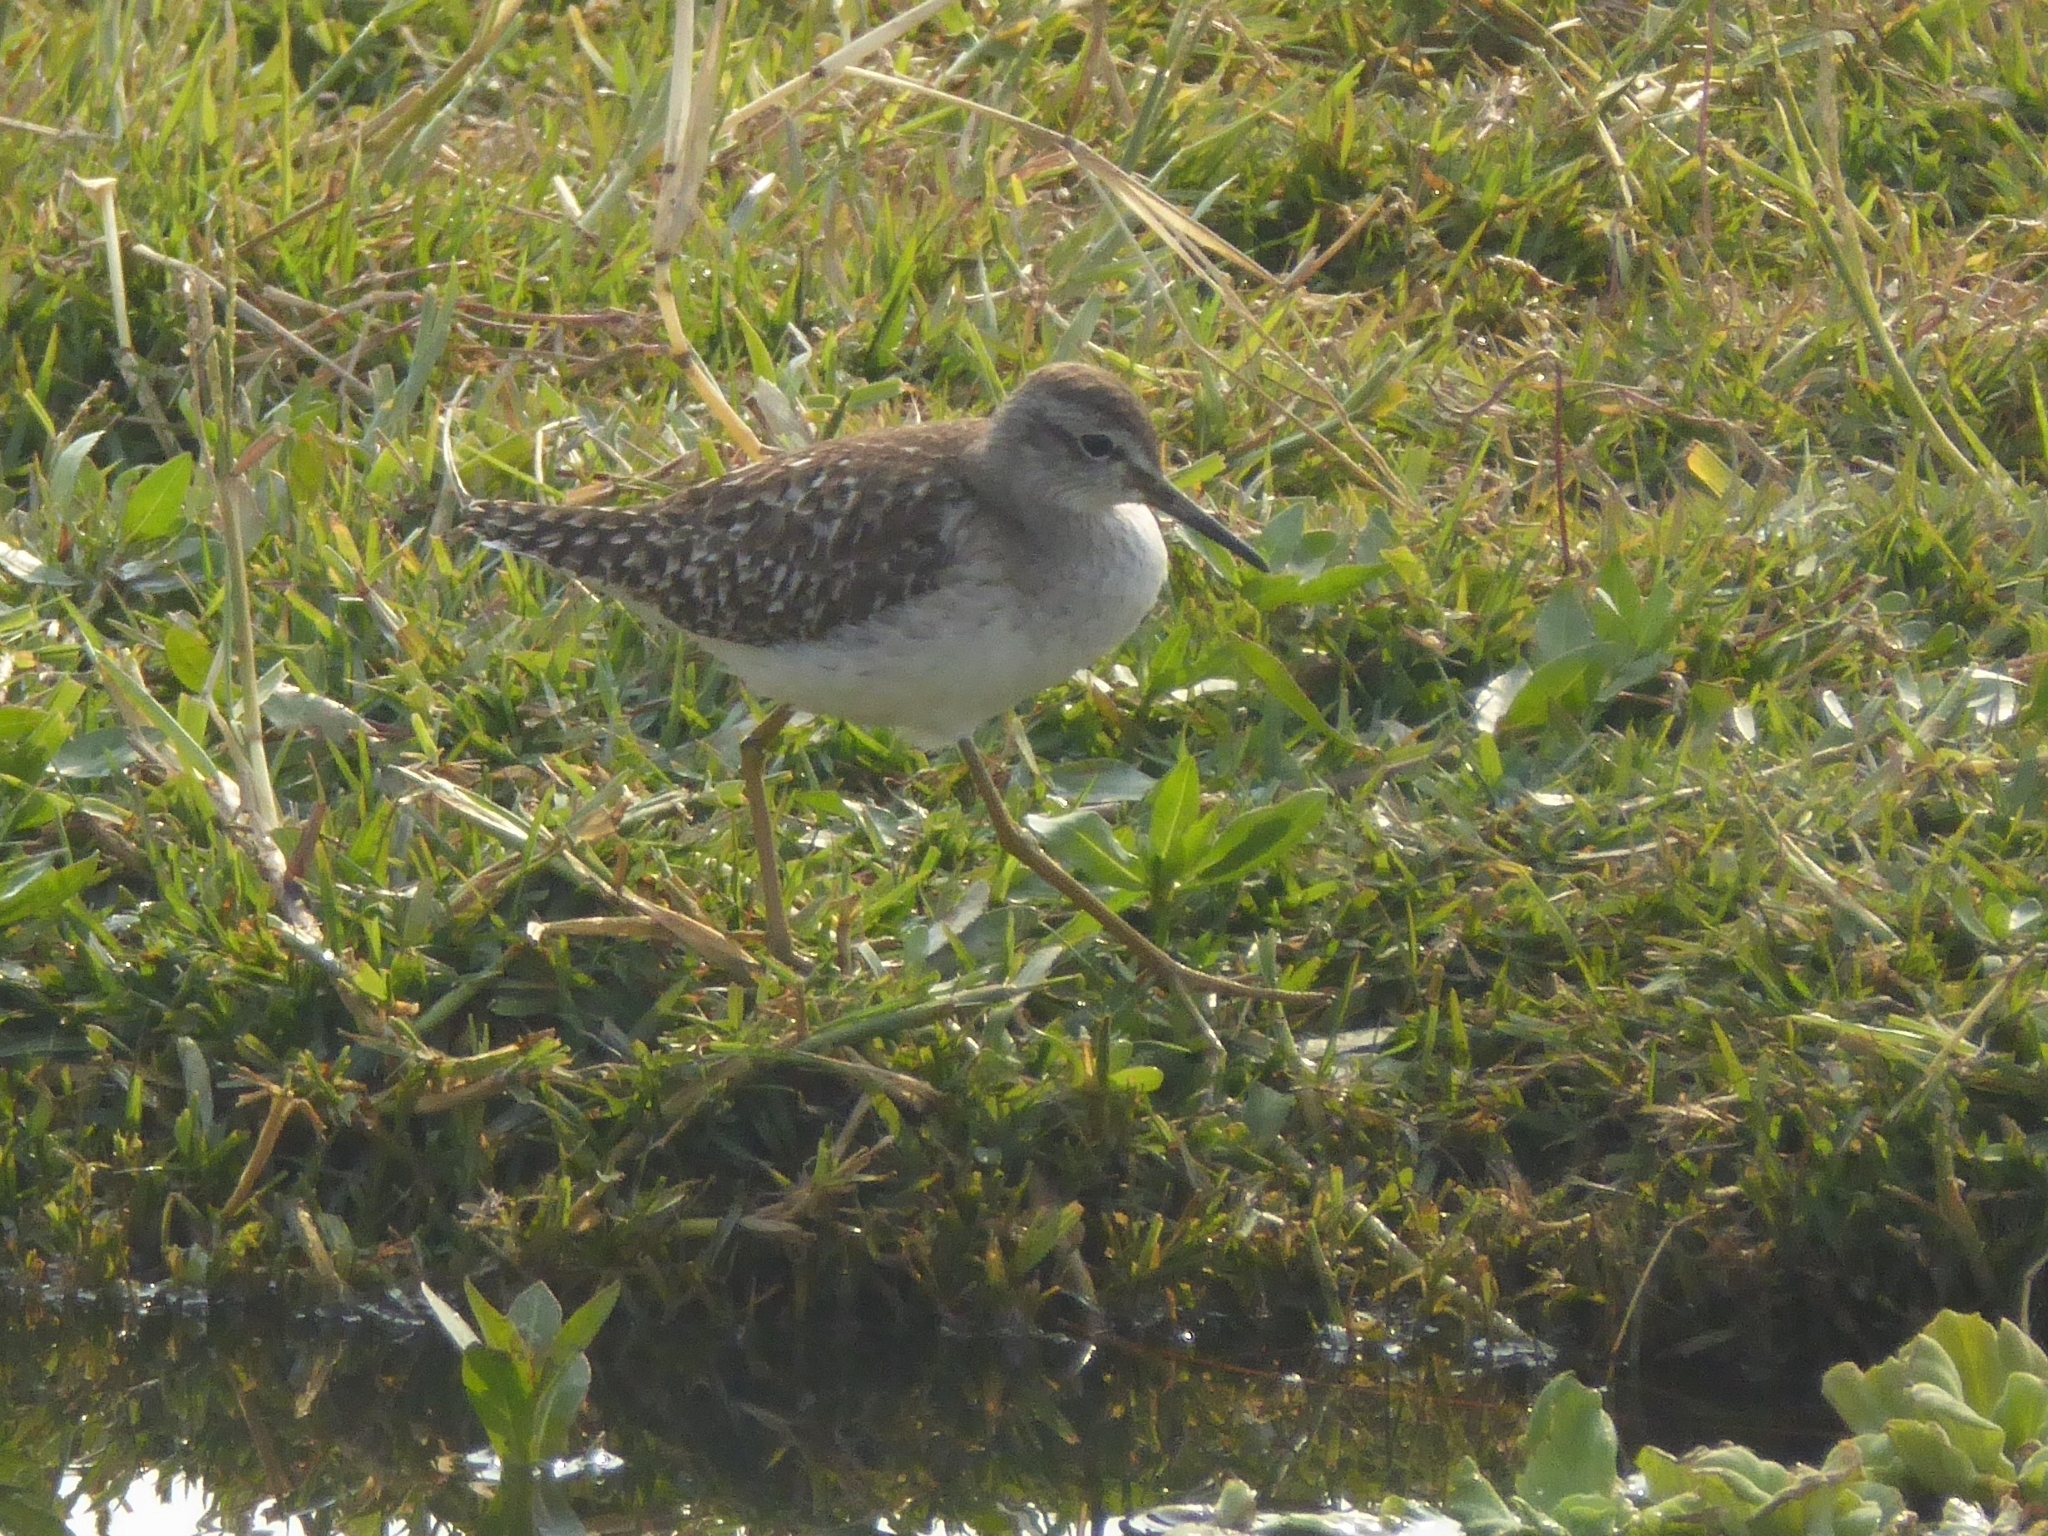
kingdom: Animalia
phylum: Chordata
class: Aves
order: Charadriiformes
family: Scolopacidae
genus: Tringa
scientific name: Tringa glareola
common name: Wood sandpiper
